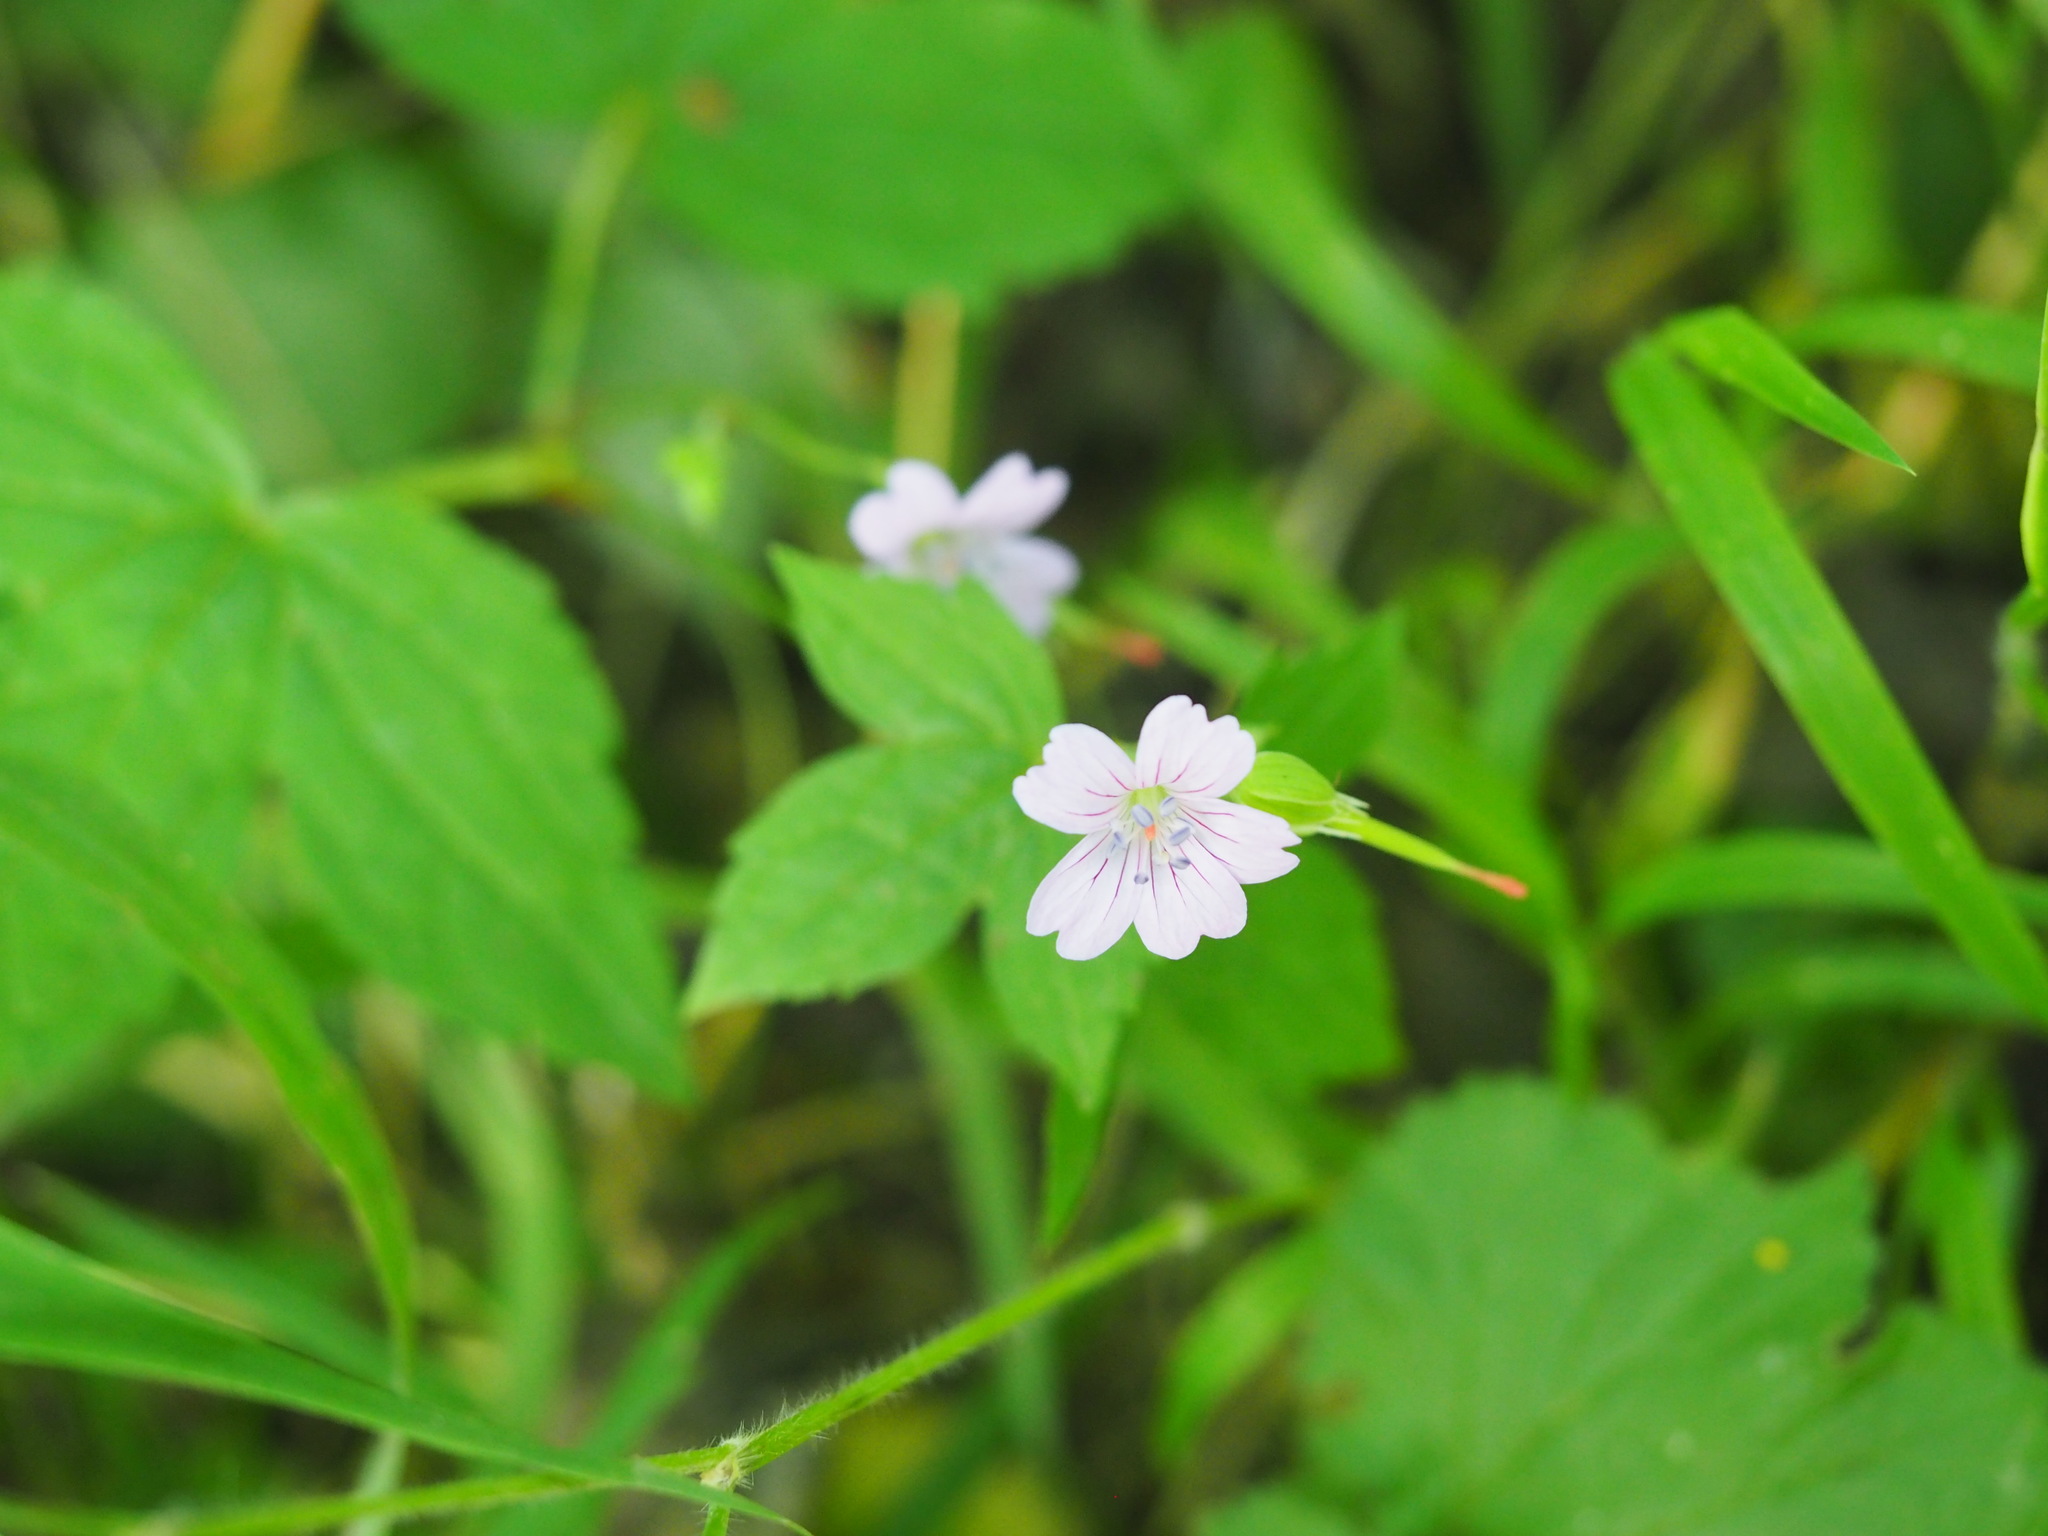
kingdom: Plantae
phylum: Tracheophyta
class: Magnoliopsida
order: Geraniales
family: Geraniaceae
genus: Geranium
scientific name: Geranium nodosum
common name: Knotted crane's-bill
